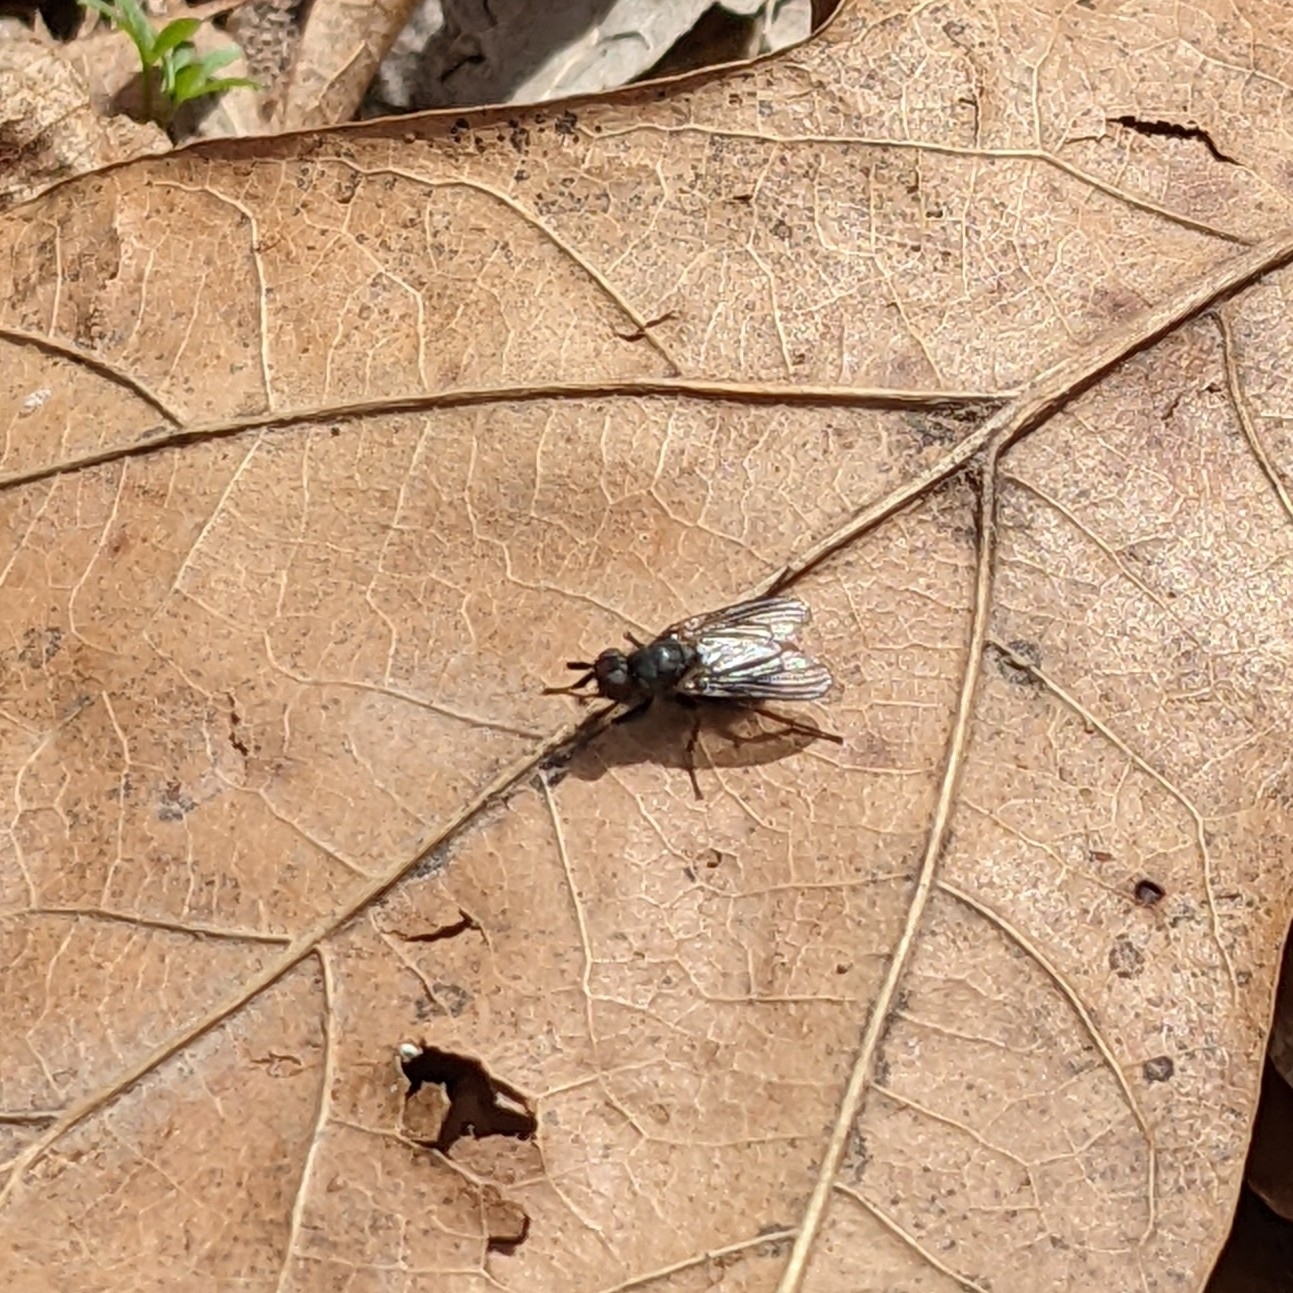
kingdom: Animalia
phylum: Arthropoda
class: Insecta
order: Diptera
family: Scathophagidae
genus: Bucephalina
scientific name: Bucephalina megacephala
